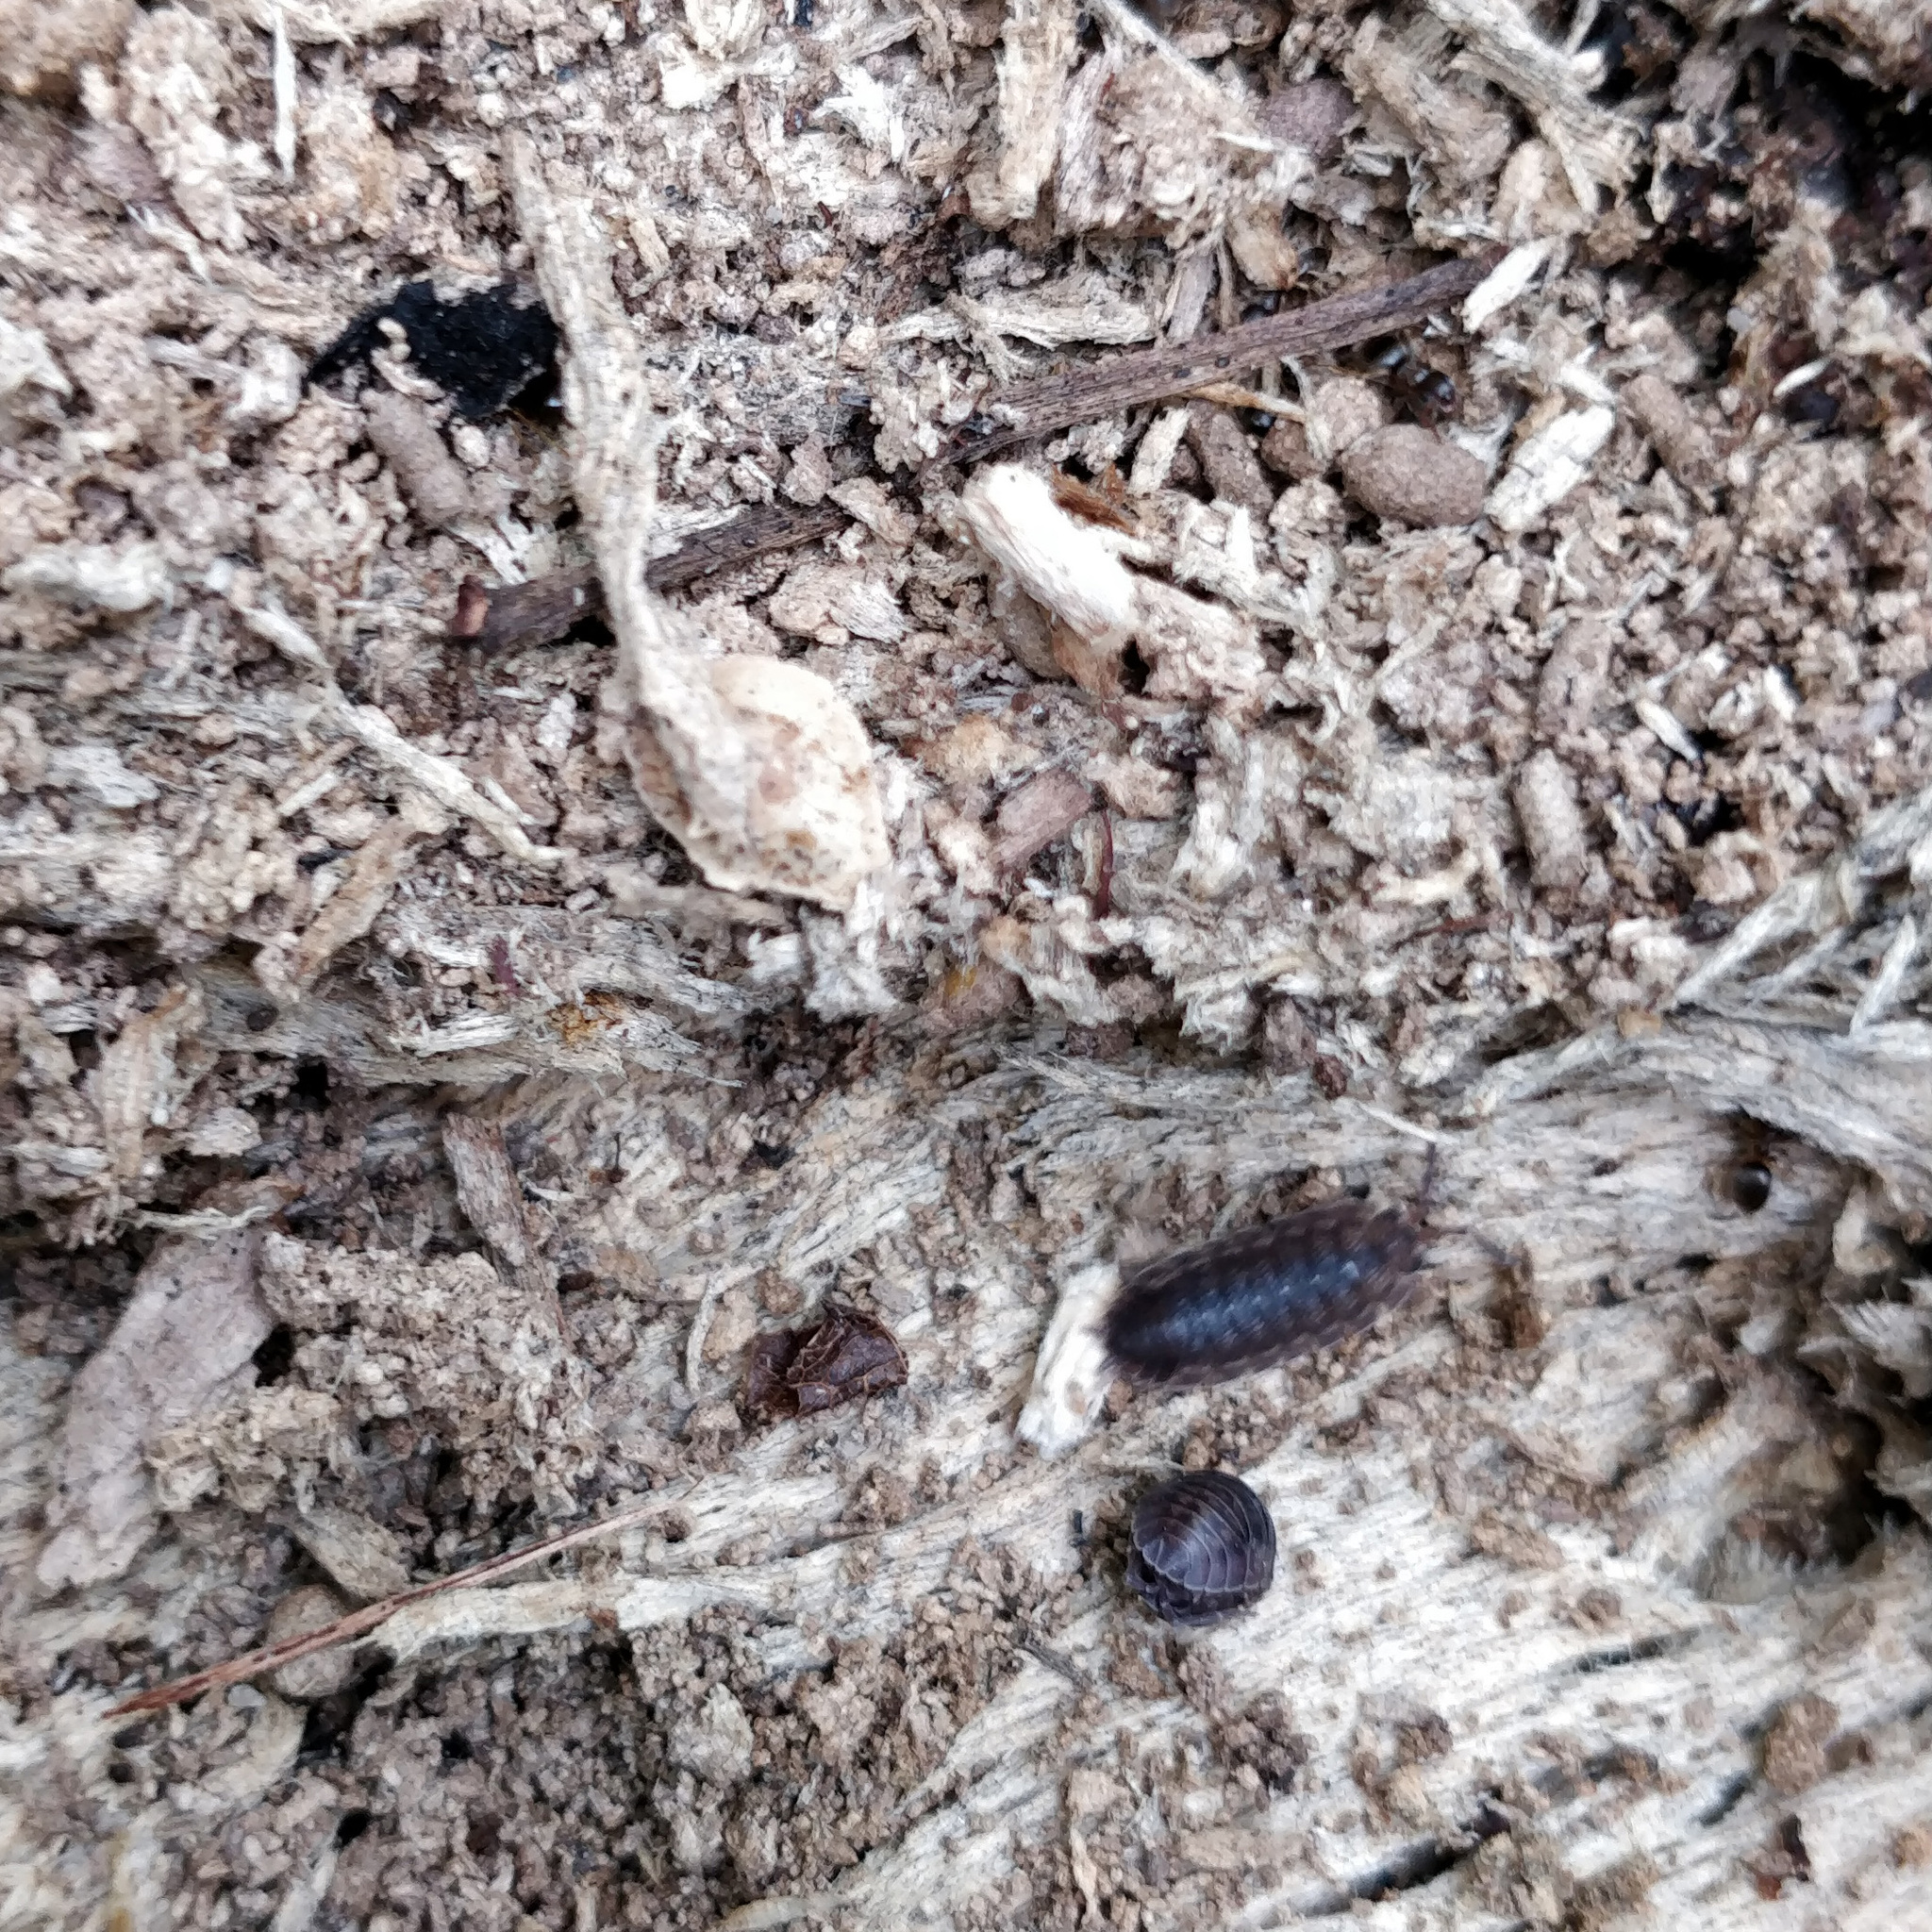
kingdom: Animalia
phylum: Arthropoda
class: Malacostraca
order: Isopoda
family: Porcellionidae
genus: Porcellio
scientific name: Porcellio scaber
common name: Common rough woodlouse
